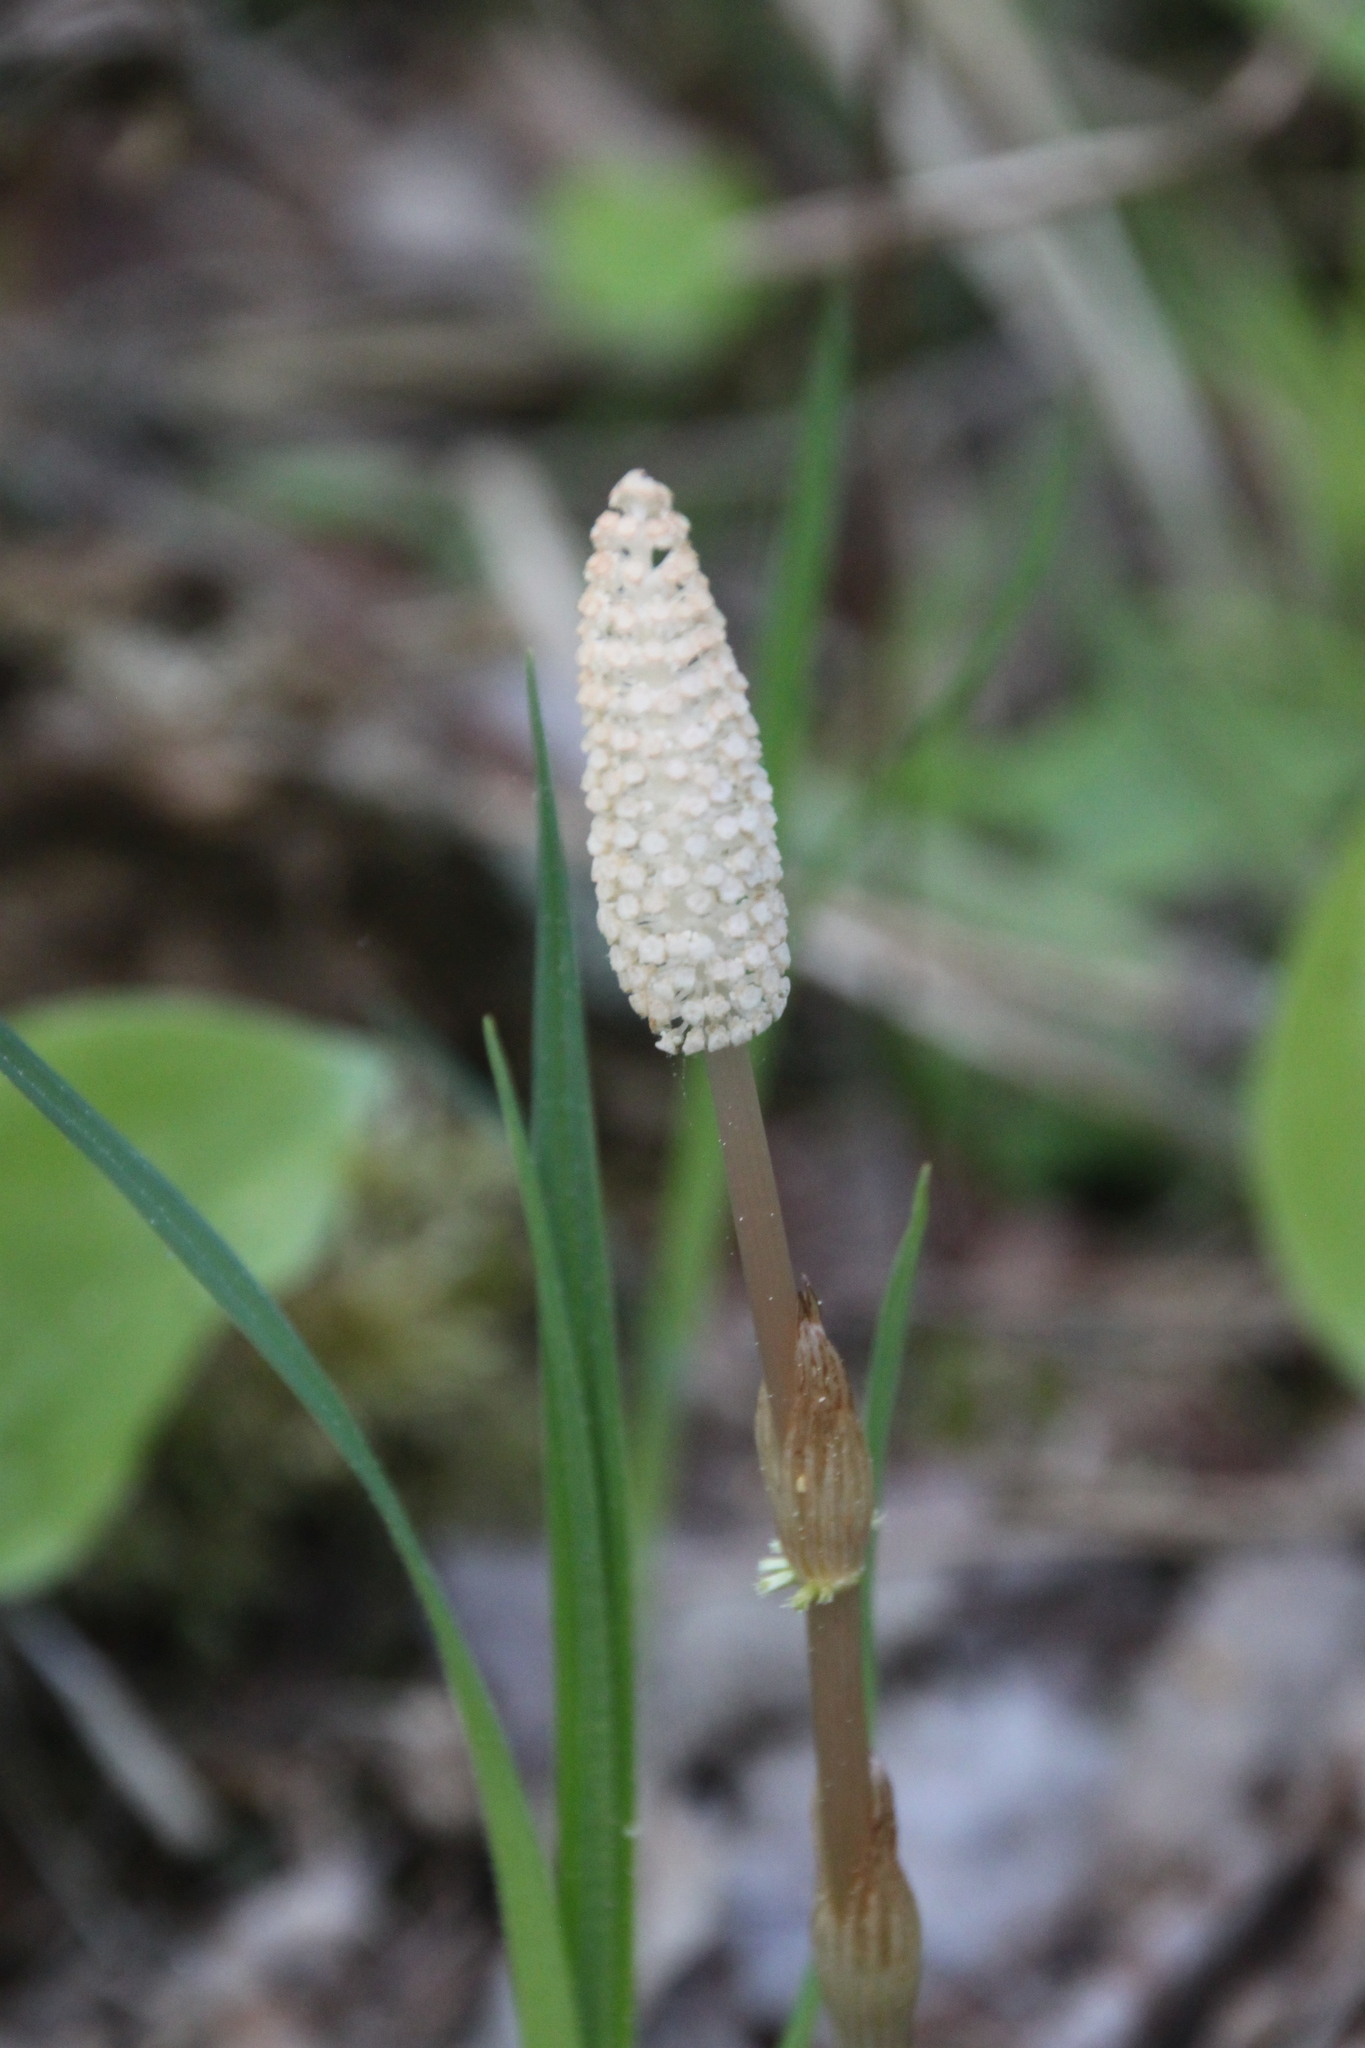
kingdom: Plantae
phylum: Tracheophyta
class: Polypodiopsida
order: Equisetales
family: Equisetaceae
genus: Equisetum
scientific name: Equisetum sylvaticum
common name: Wood horsetail
